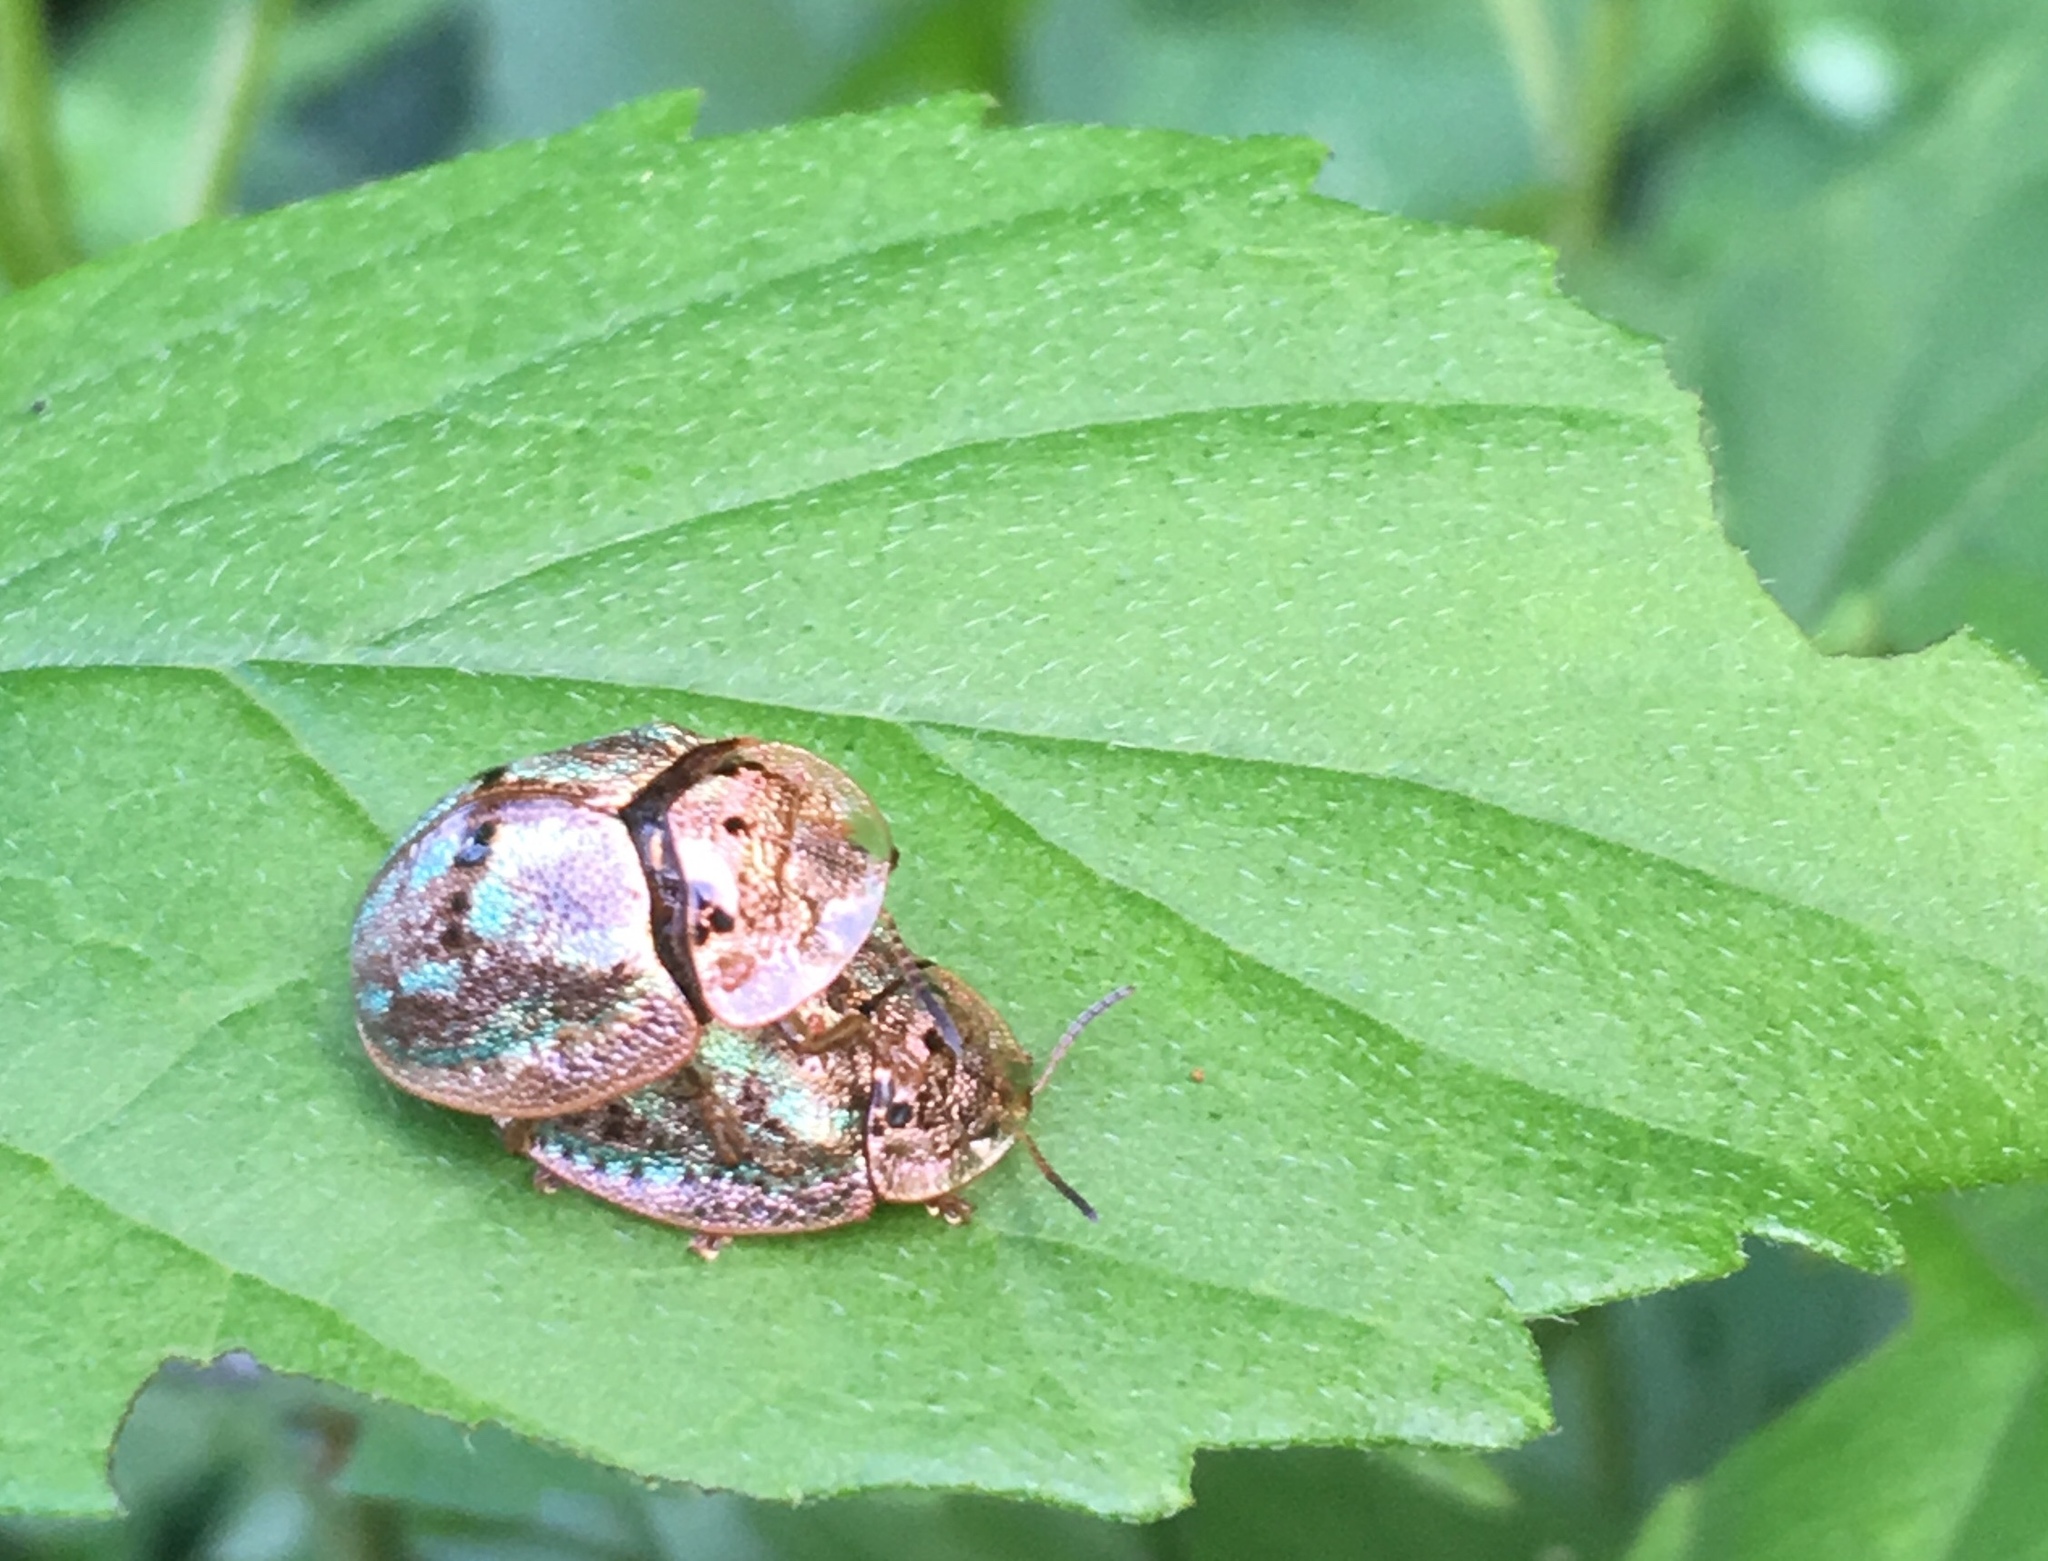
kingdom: Animalia
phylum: Arthropoda
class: Insecta
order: Coleoptera
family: Chrysomelidae
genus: Physonota
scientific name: Physonota alutacea
